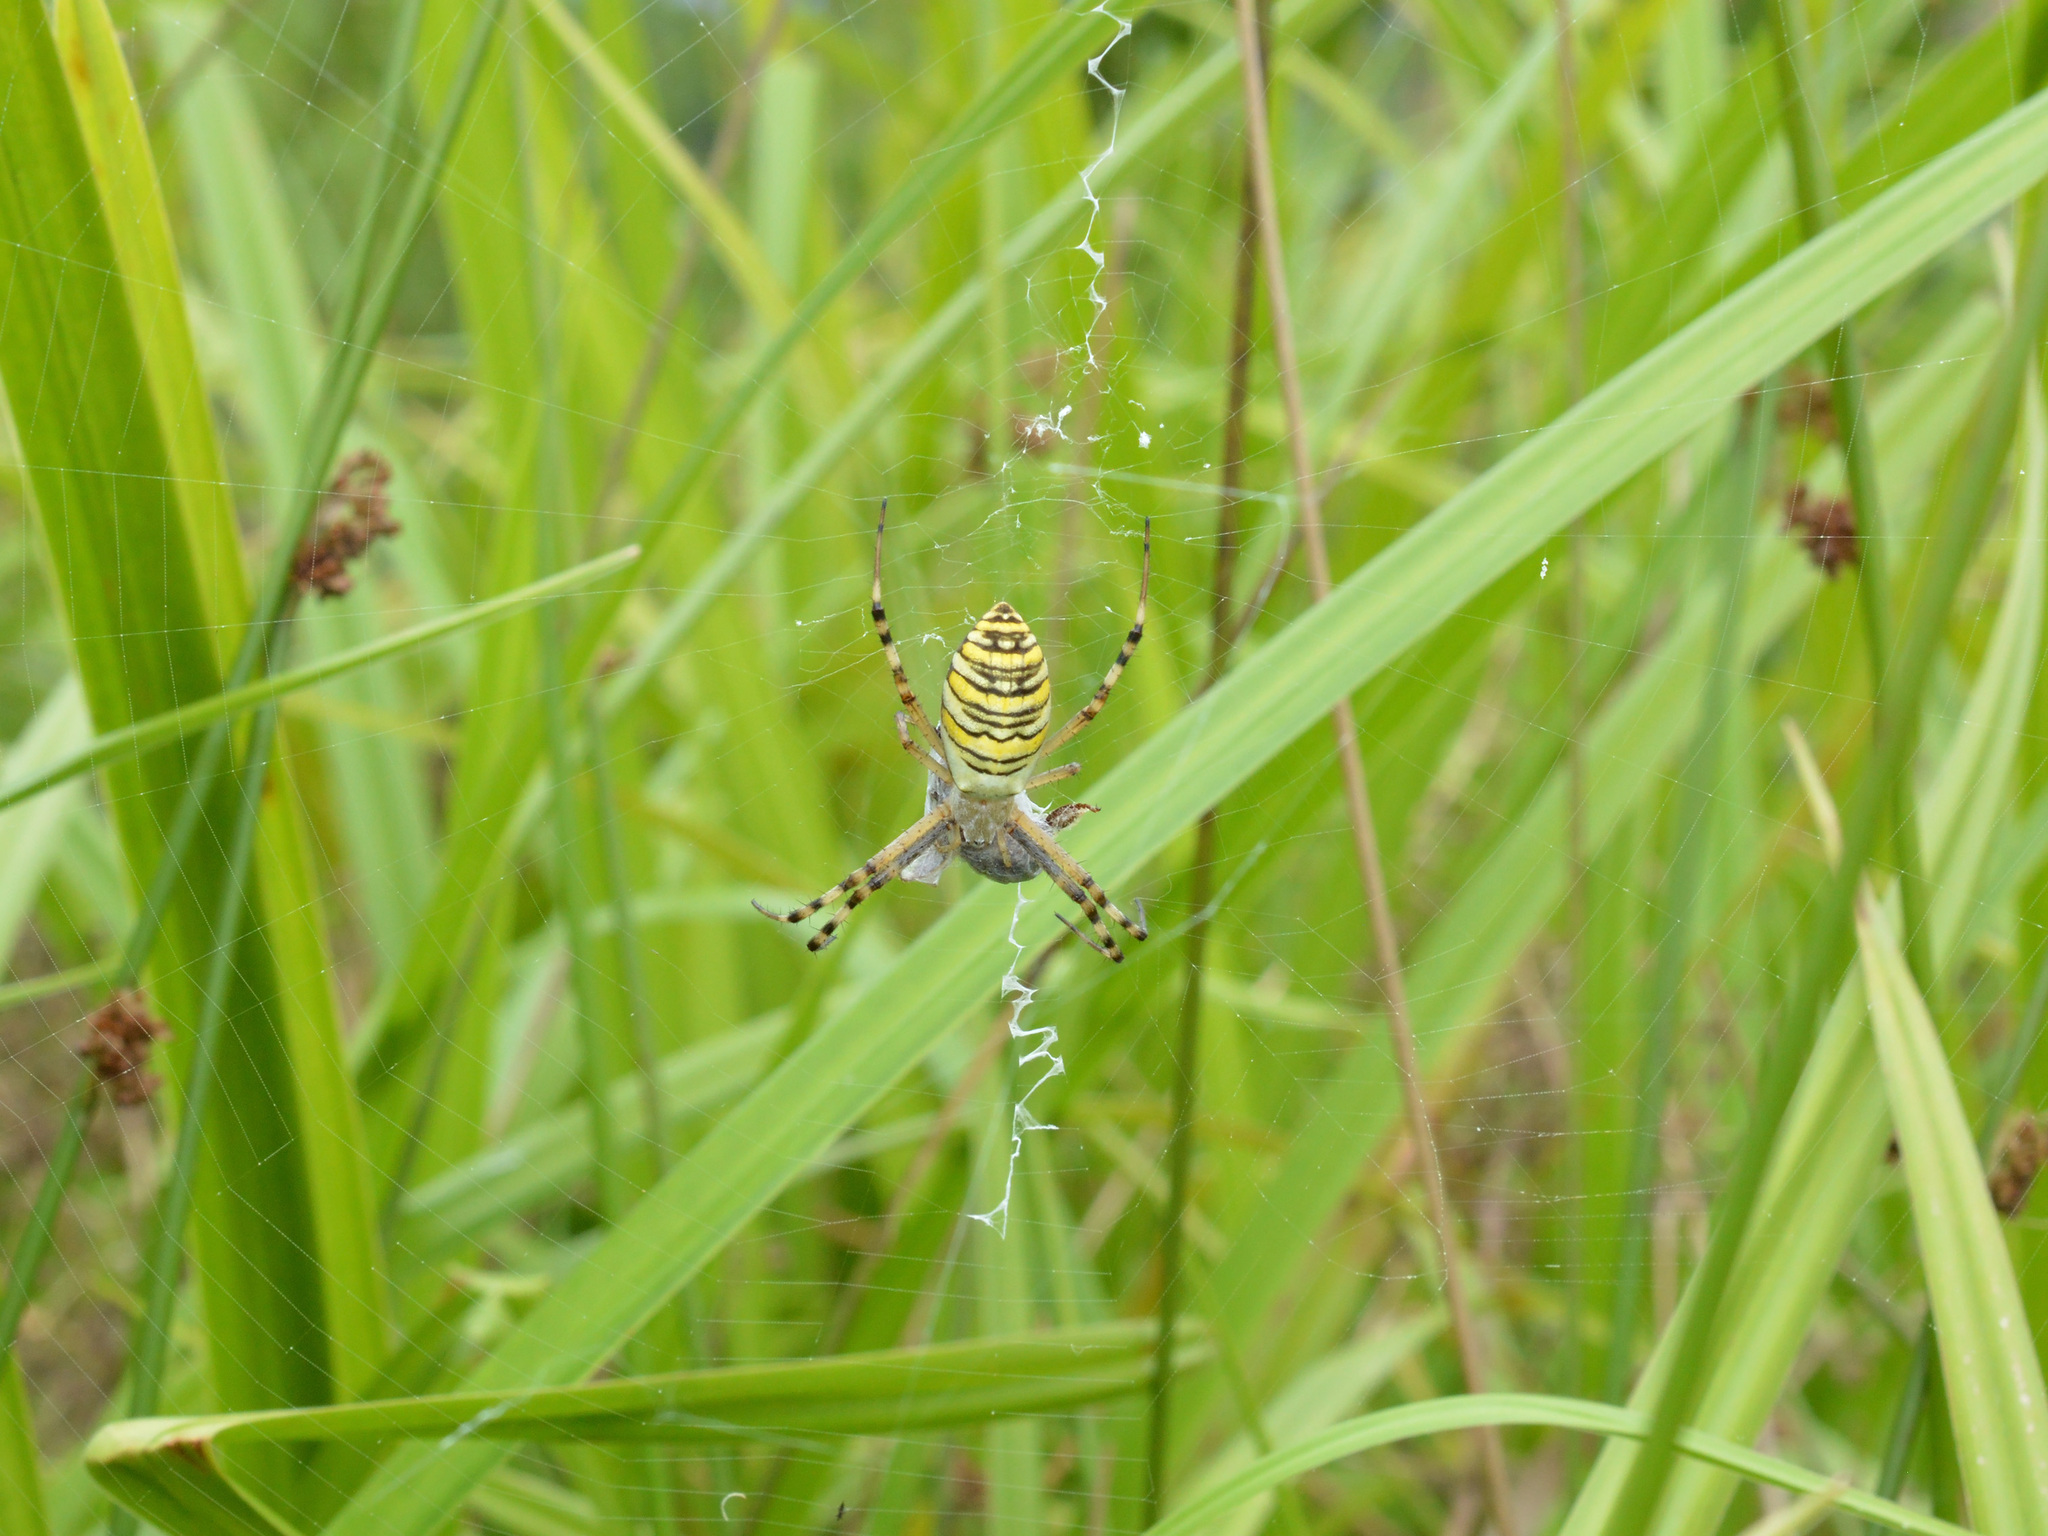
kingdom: Animalia
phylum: Arthropoda
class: Arachnida
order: Araneae
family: Araneidae
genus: Argiope
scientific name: Argiope bruennichi
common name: Wasp spider
